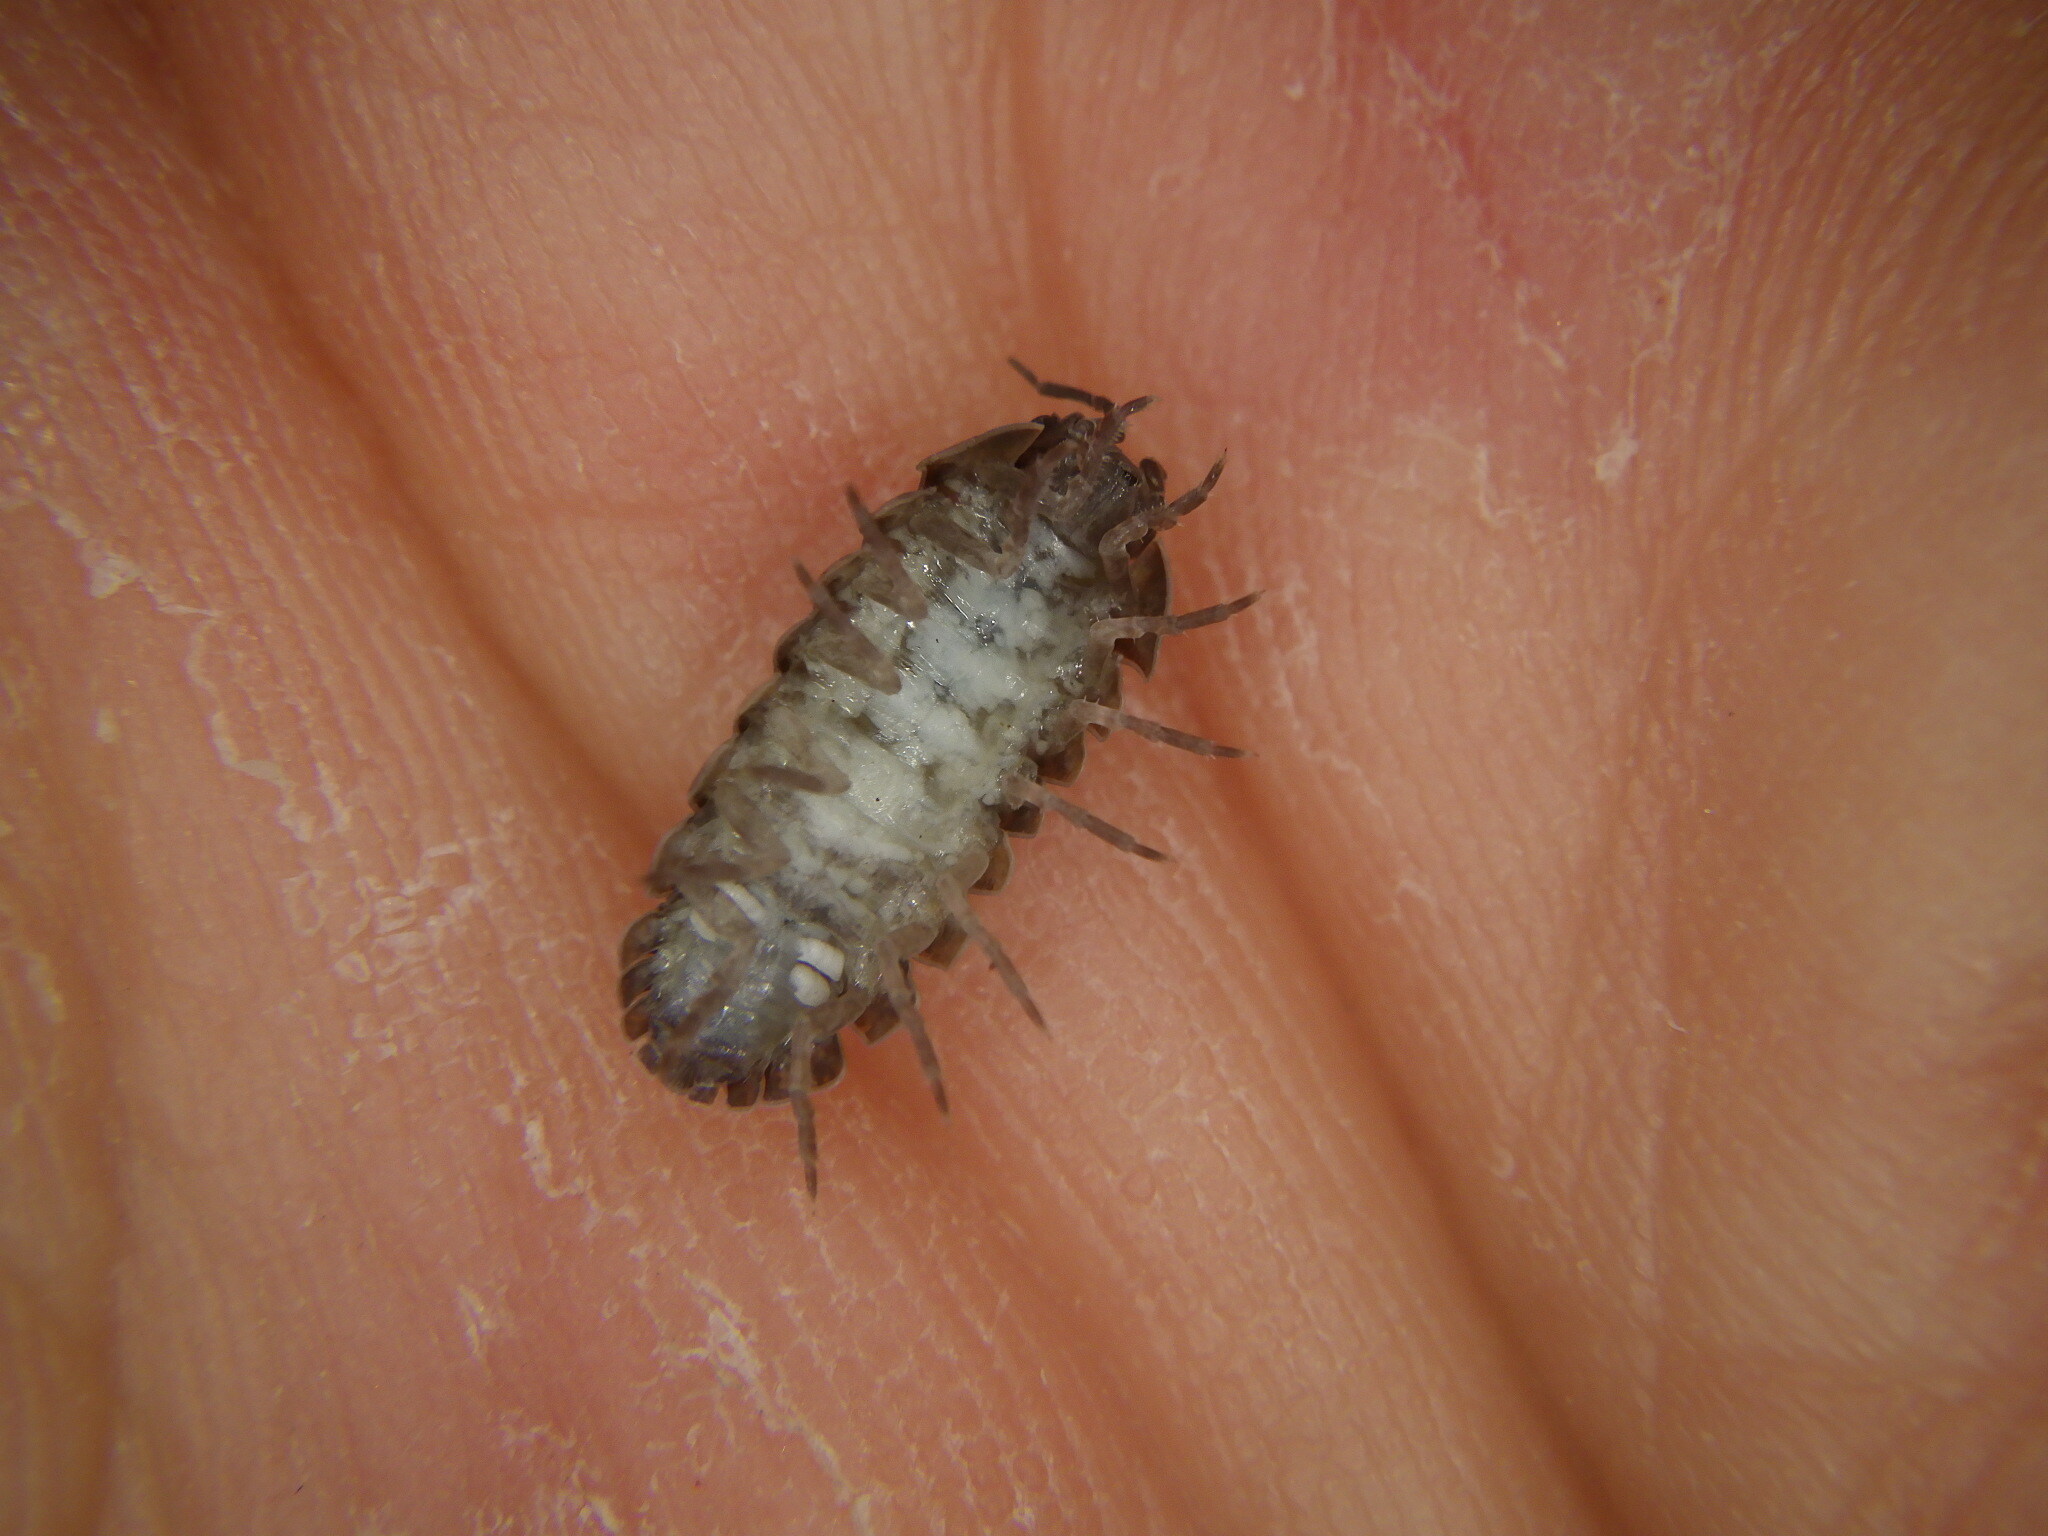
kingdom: Animalia
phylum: Arthropoda
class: Malacostraca
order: Isopoda
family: Armadillidiidae
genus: Armadillidium
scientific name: Armadillidium vulgare
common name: Common pill woodlouse
